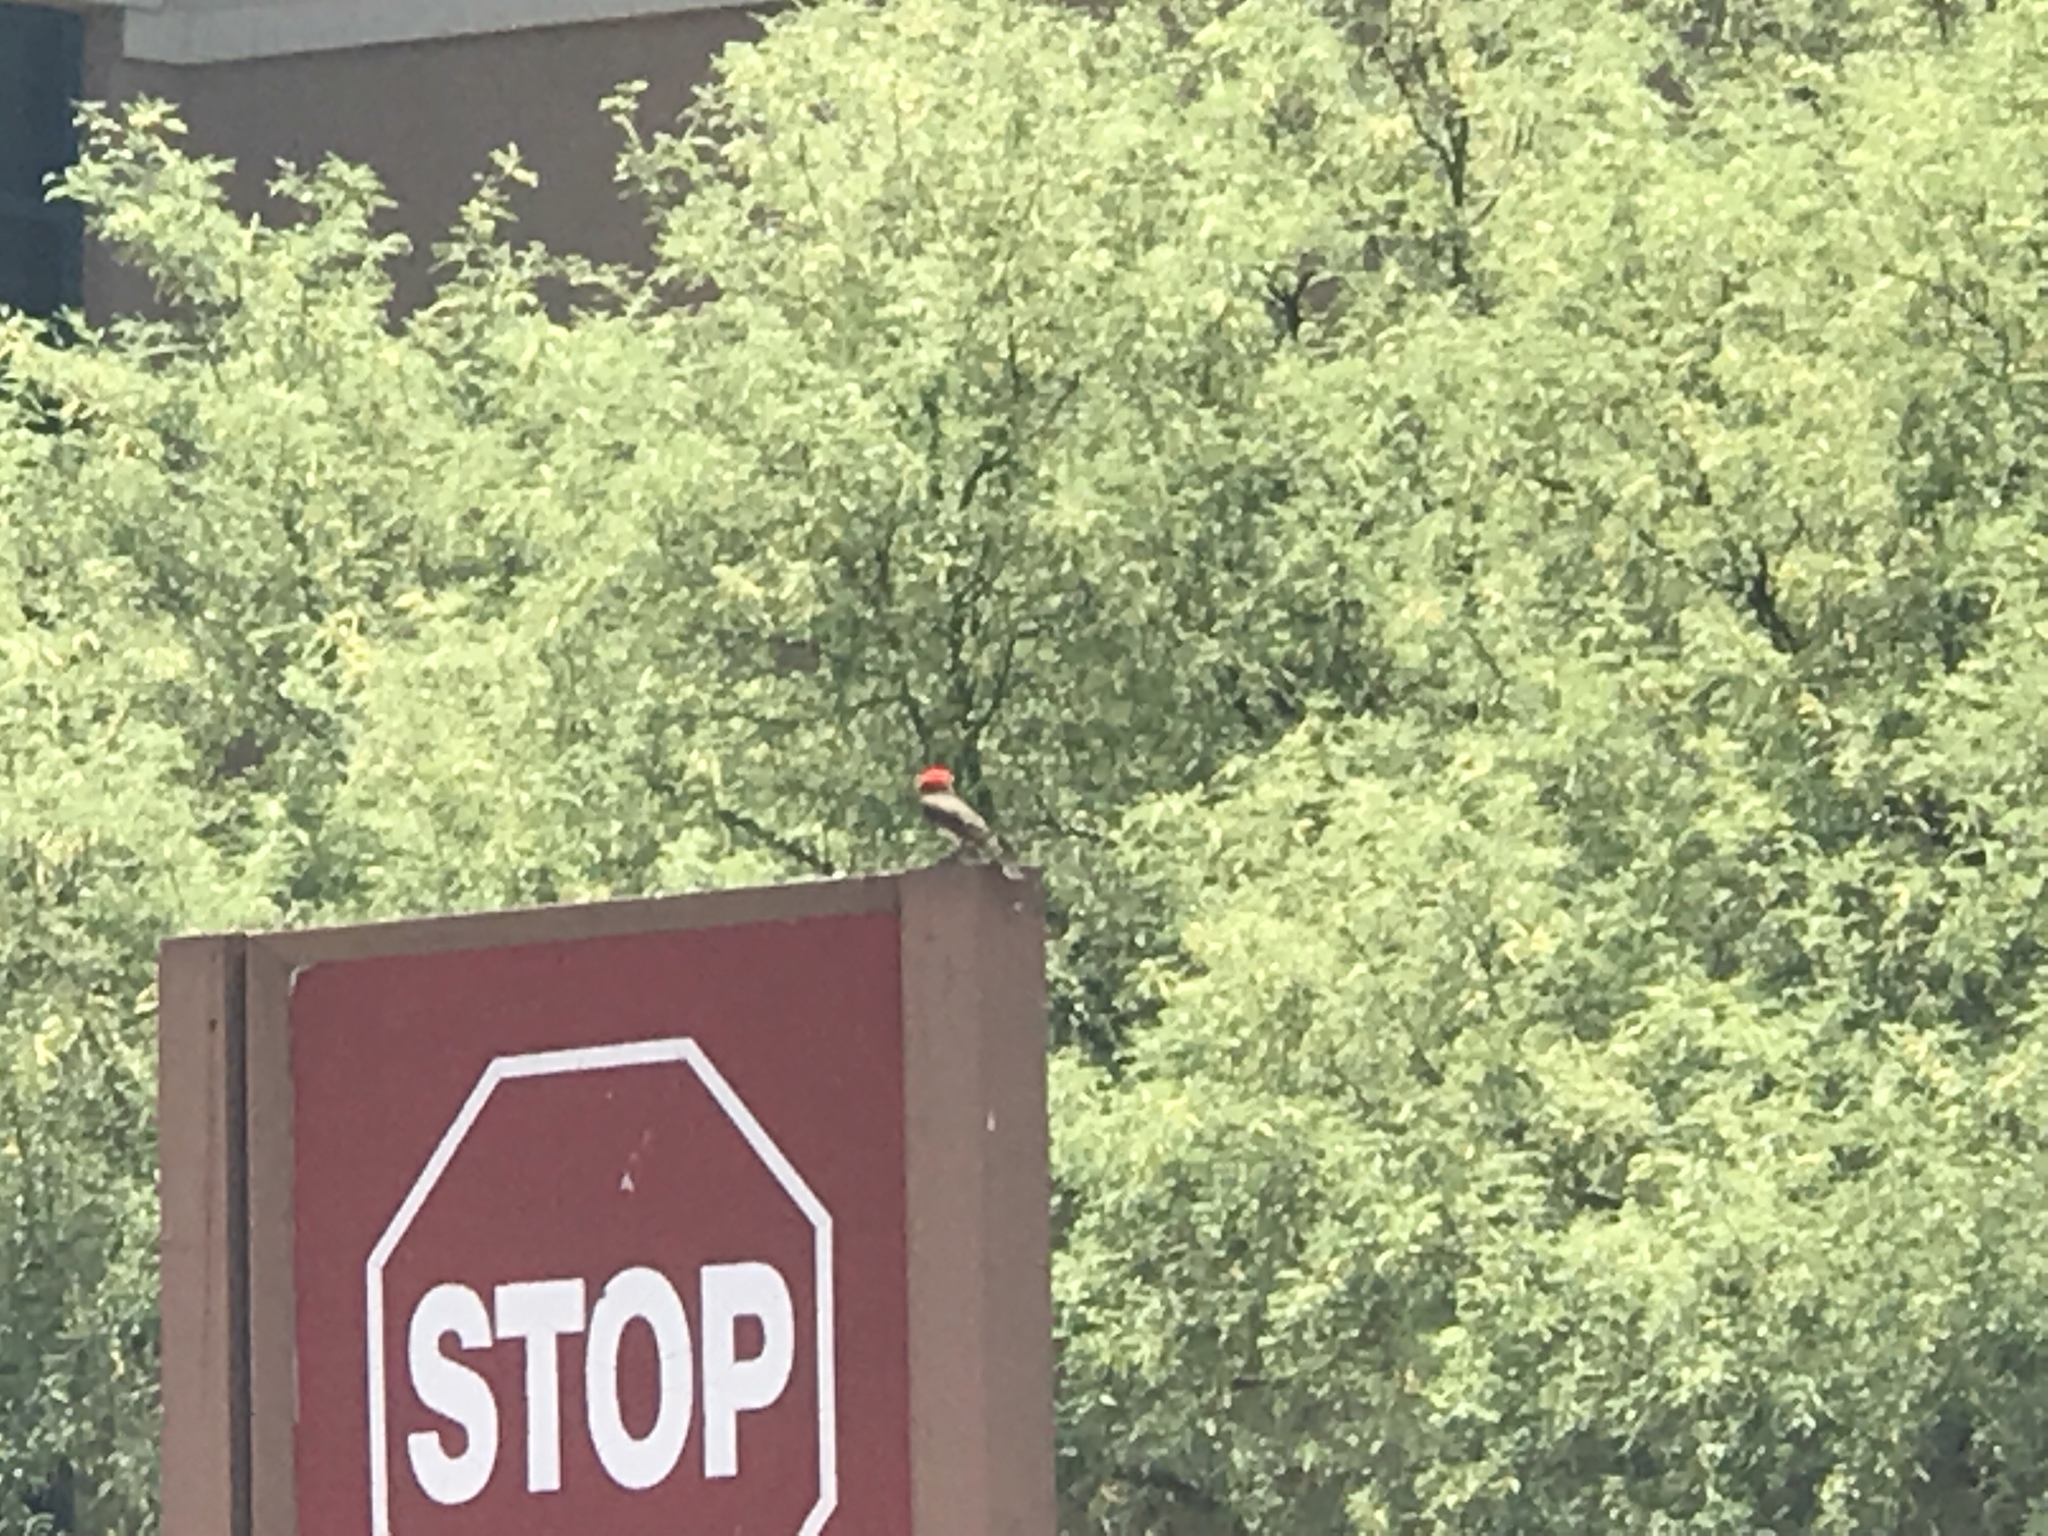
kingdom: Animalia
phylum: Chordata
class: Aves
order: Passeriformes
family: Tyrannidae
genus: Pyrocephalus
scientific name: Pyrocephalus rubinus
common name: Vermilion flycatcher
